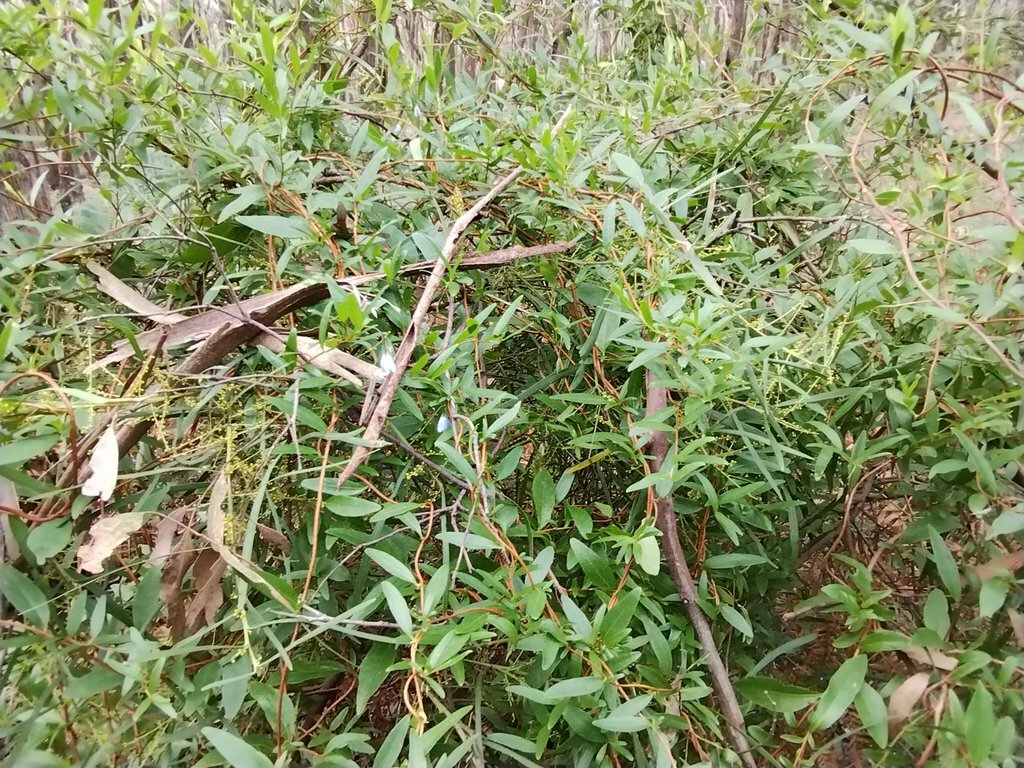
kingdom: Plantae
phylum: Tracheophyta
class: Magnoliopsida
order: Apiales
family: Pittosporaceae
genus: Billardiera
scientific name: Billardiera fusiformis
